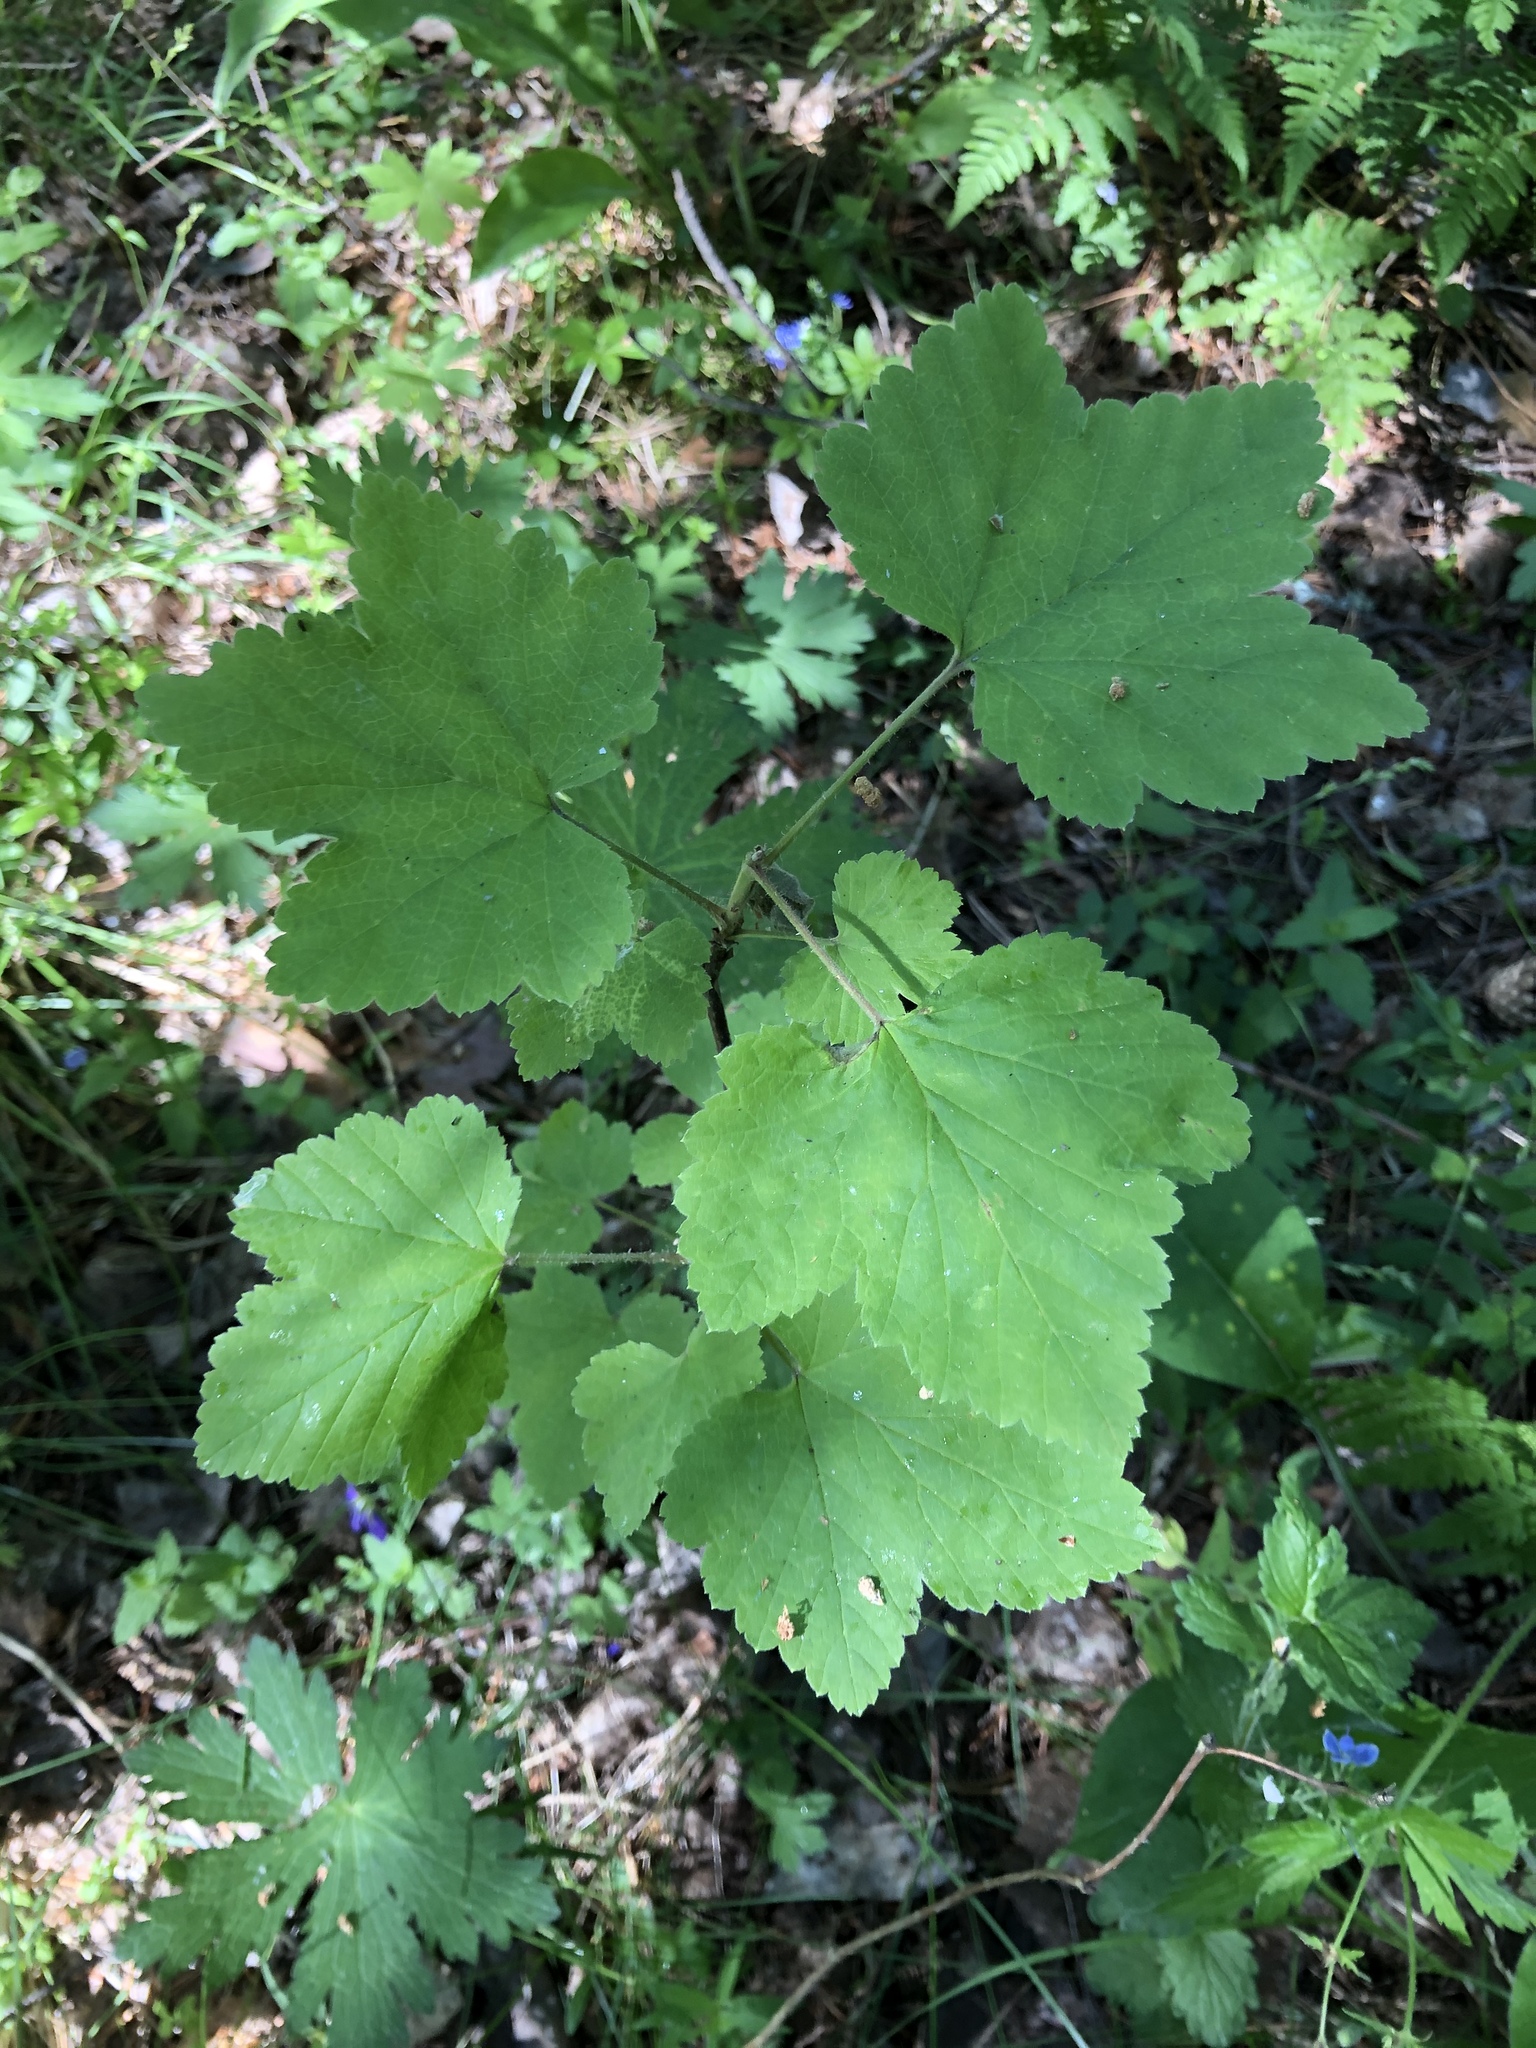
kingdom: Plantae
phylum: Tracheophyta
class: Magnoliopsida
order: Saxifragales
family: Grossulariaceae
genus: Ribes
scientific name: Ribes rubrum
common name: Red currant
